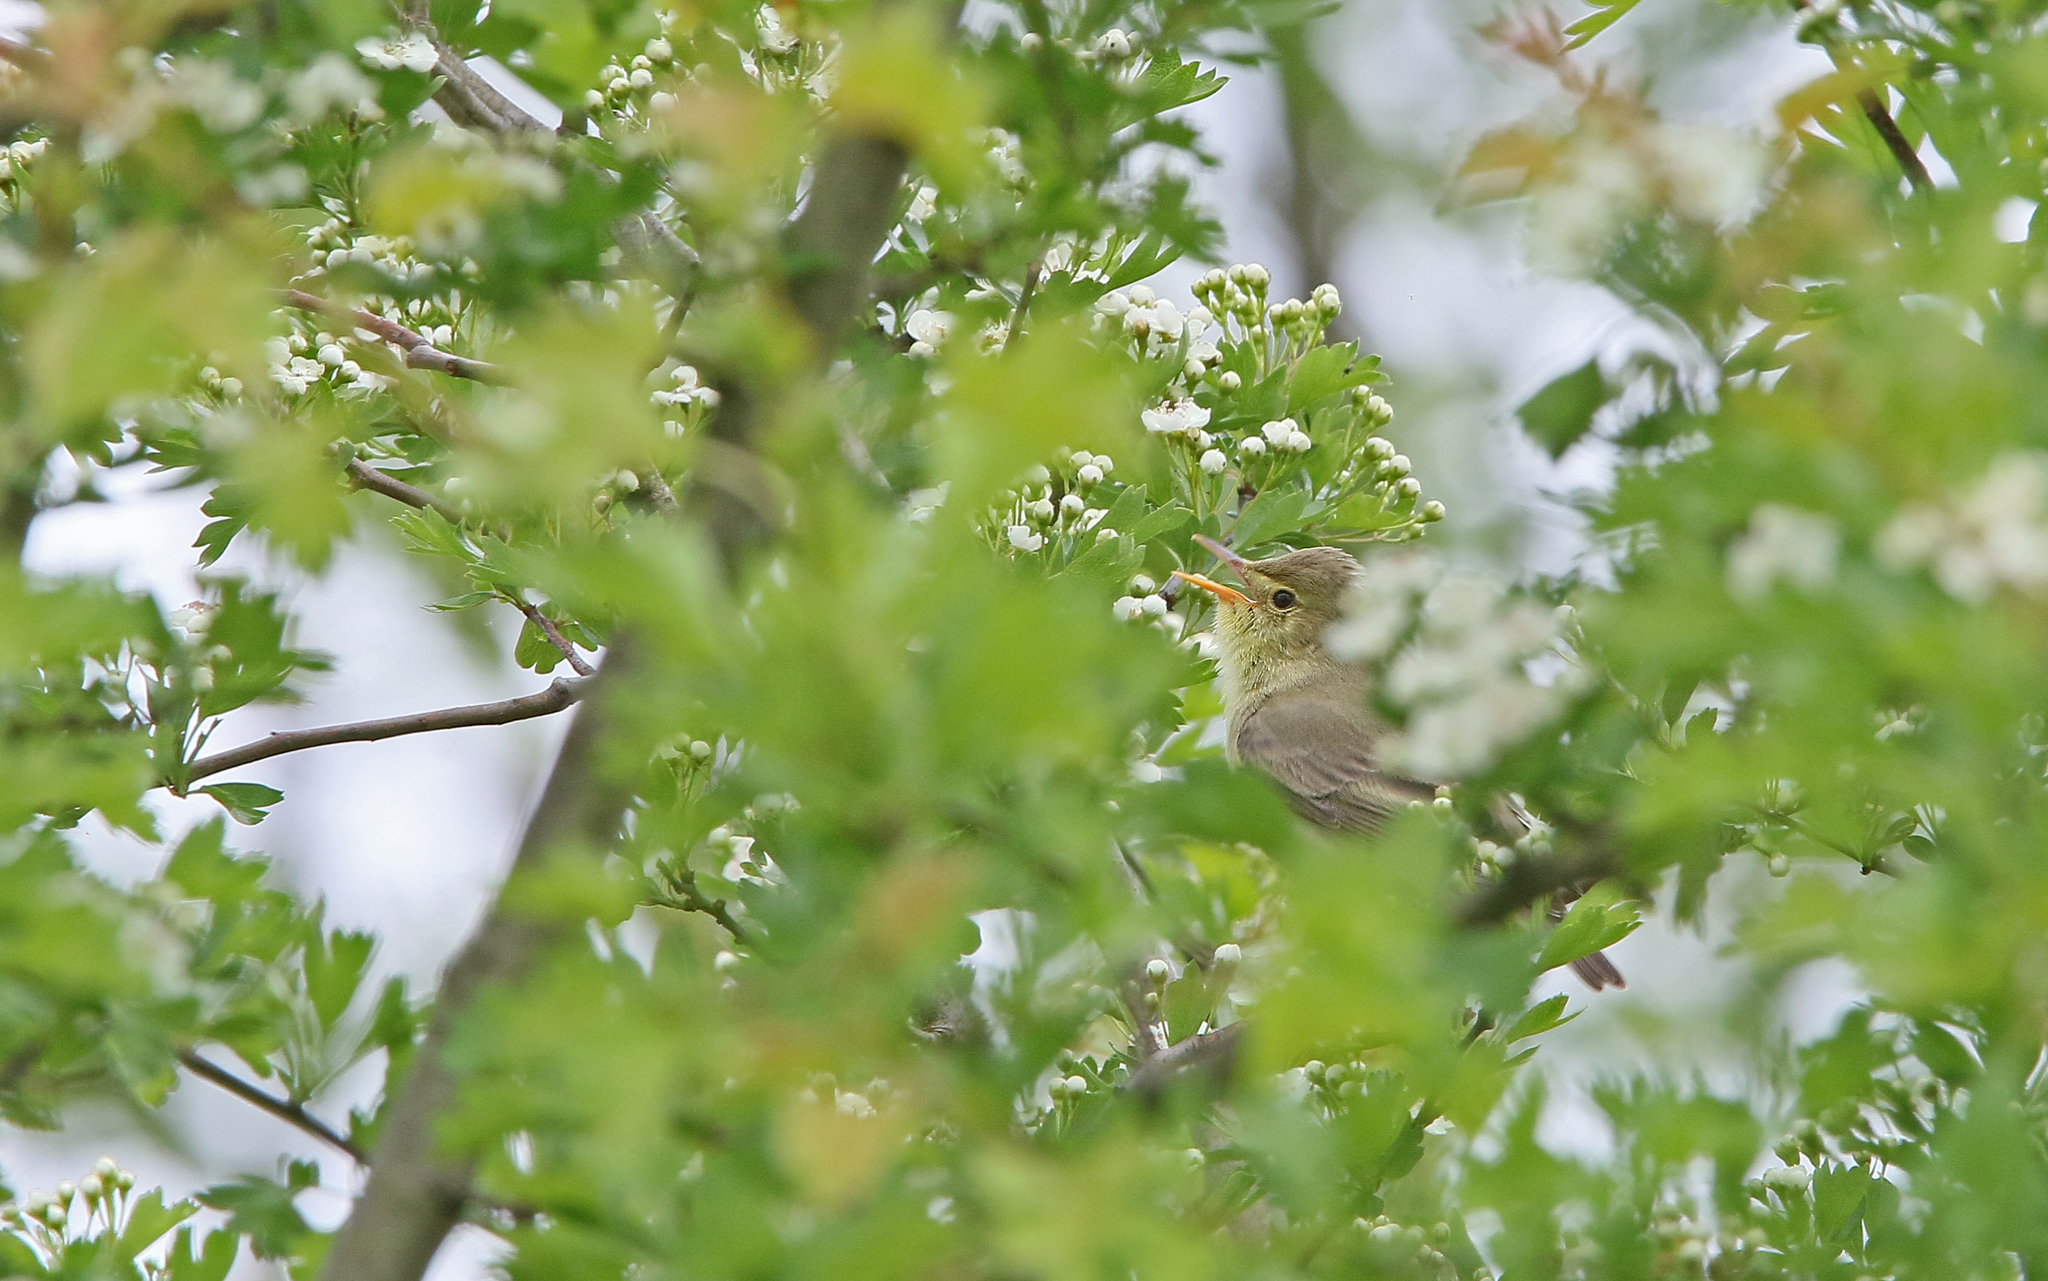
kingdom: Animalia
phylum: Chordata
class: Aves
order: Passeriformes
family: Acrocephalidae
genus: Hippolais
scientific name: Hippolais icterina
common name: Icterine warbler
